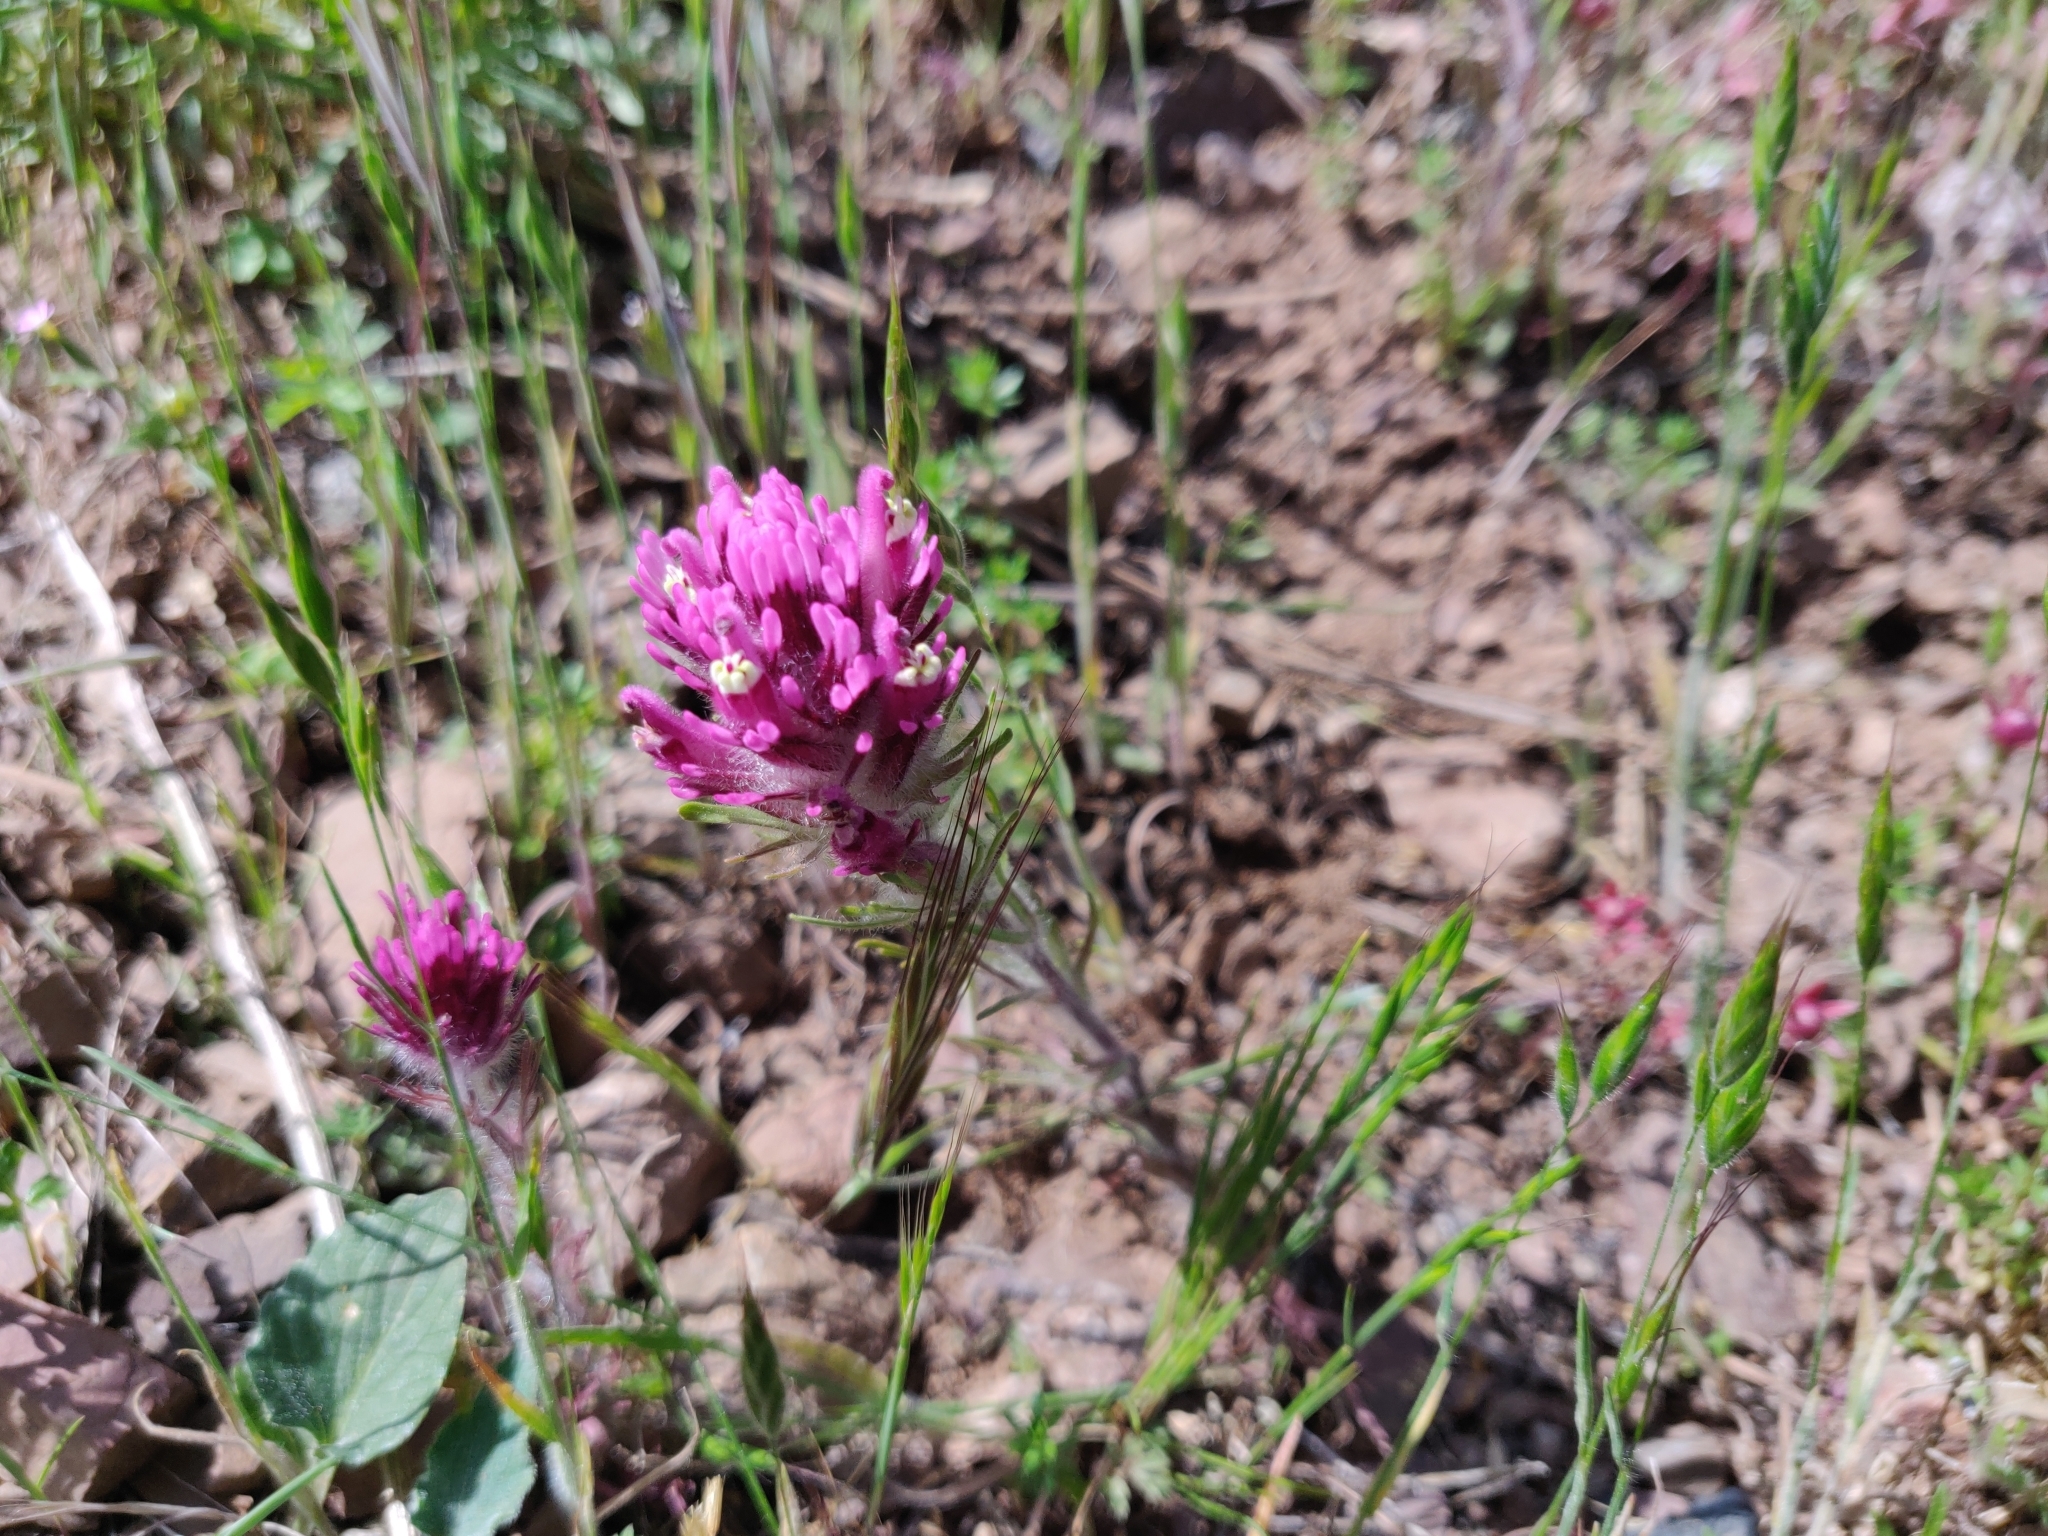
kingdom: Plantae
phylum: Tracheophyta
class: Magnoliopsida
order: Lamiales
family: Orobanchaceae
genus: Castilleja
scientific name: Castilleja exserta
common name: Purple owl-clover
